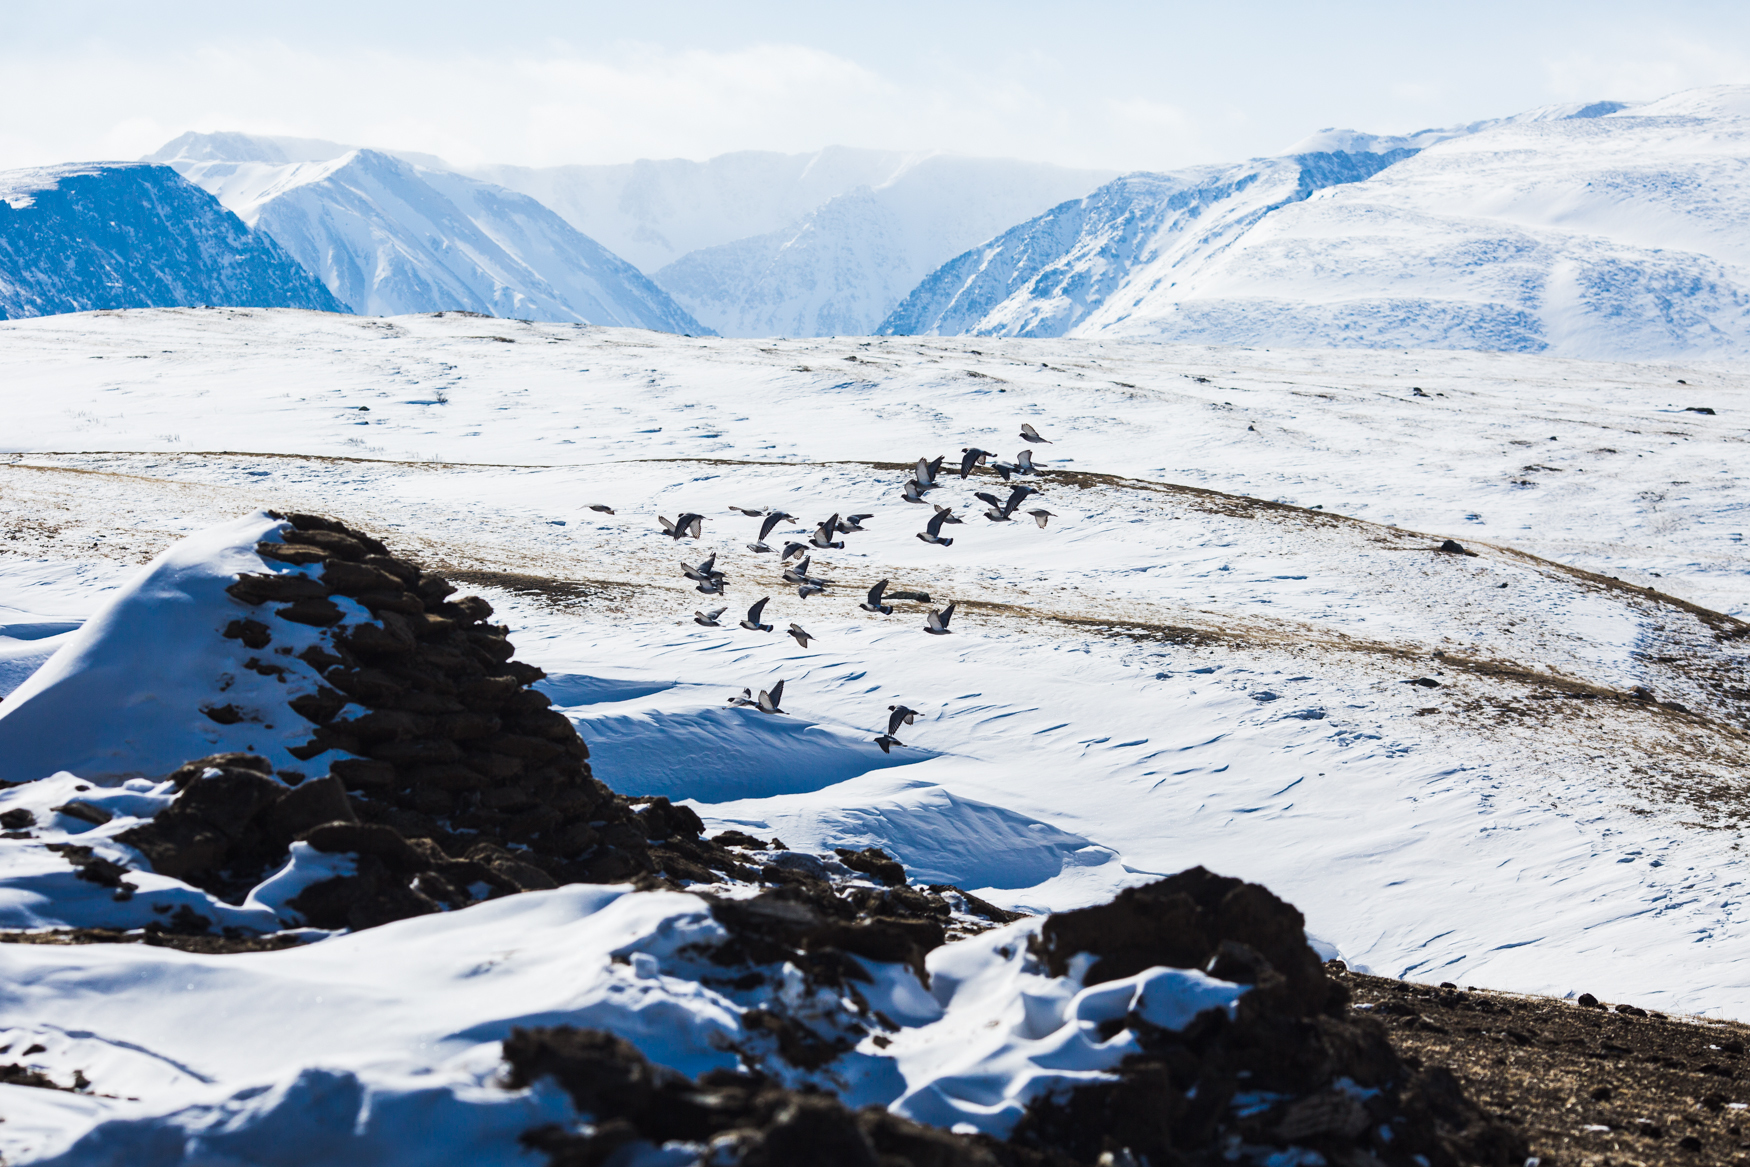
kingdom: Animalia
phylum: Chordata
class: Aves
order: Columbiformes
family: Columbidae
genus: Columba
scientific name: Columba rupestris
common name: Hill pigeon
